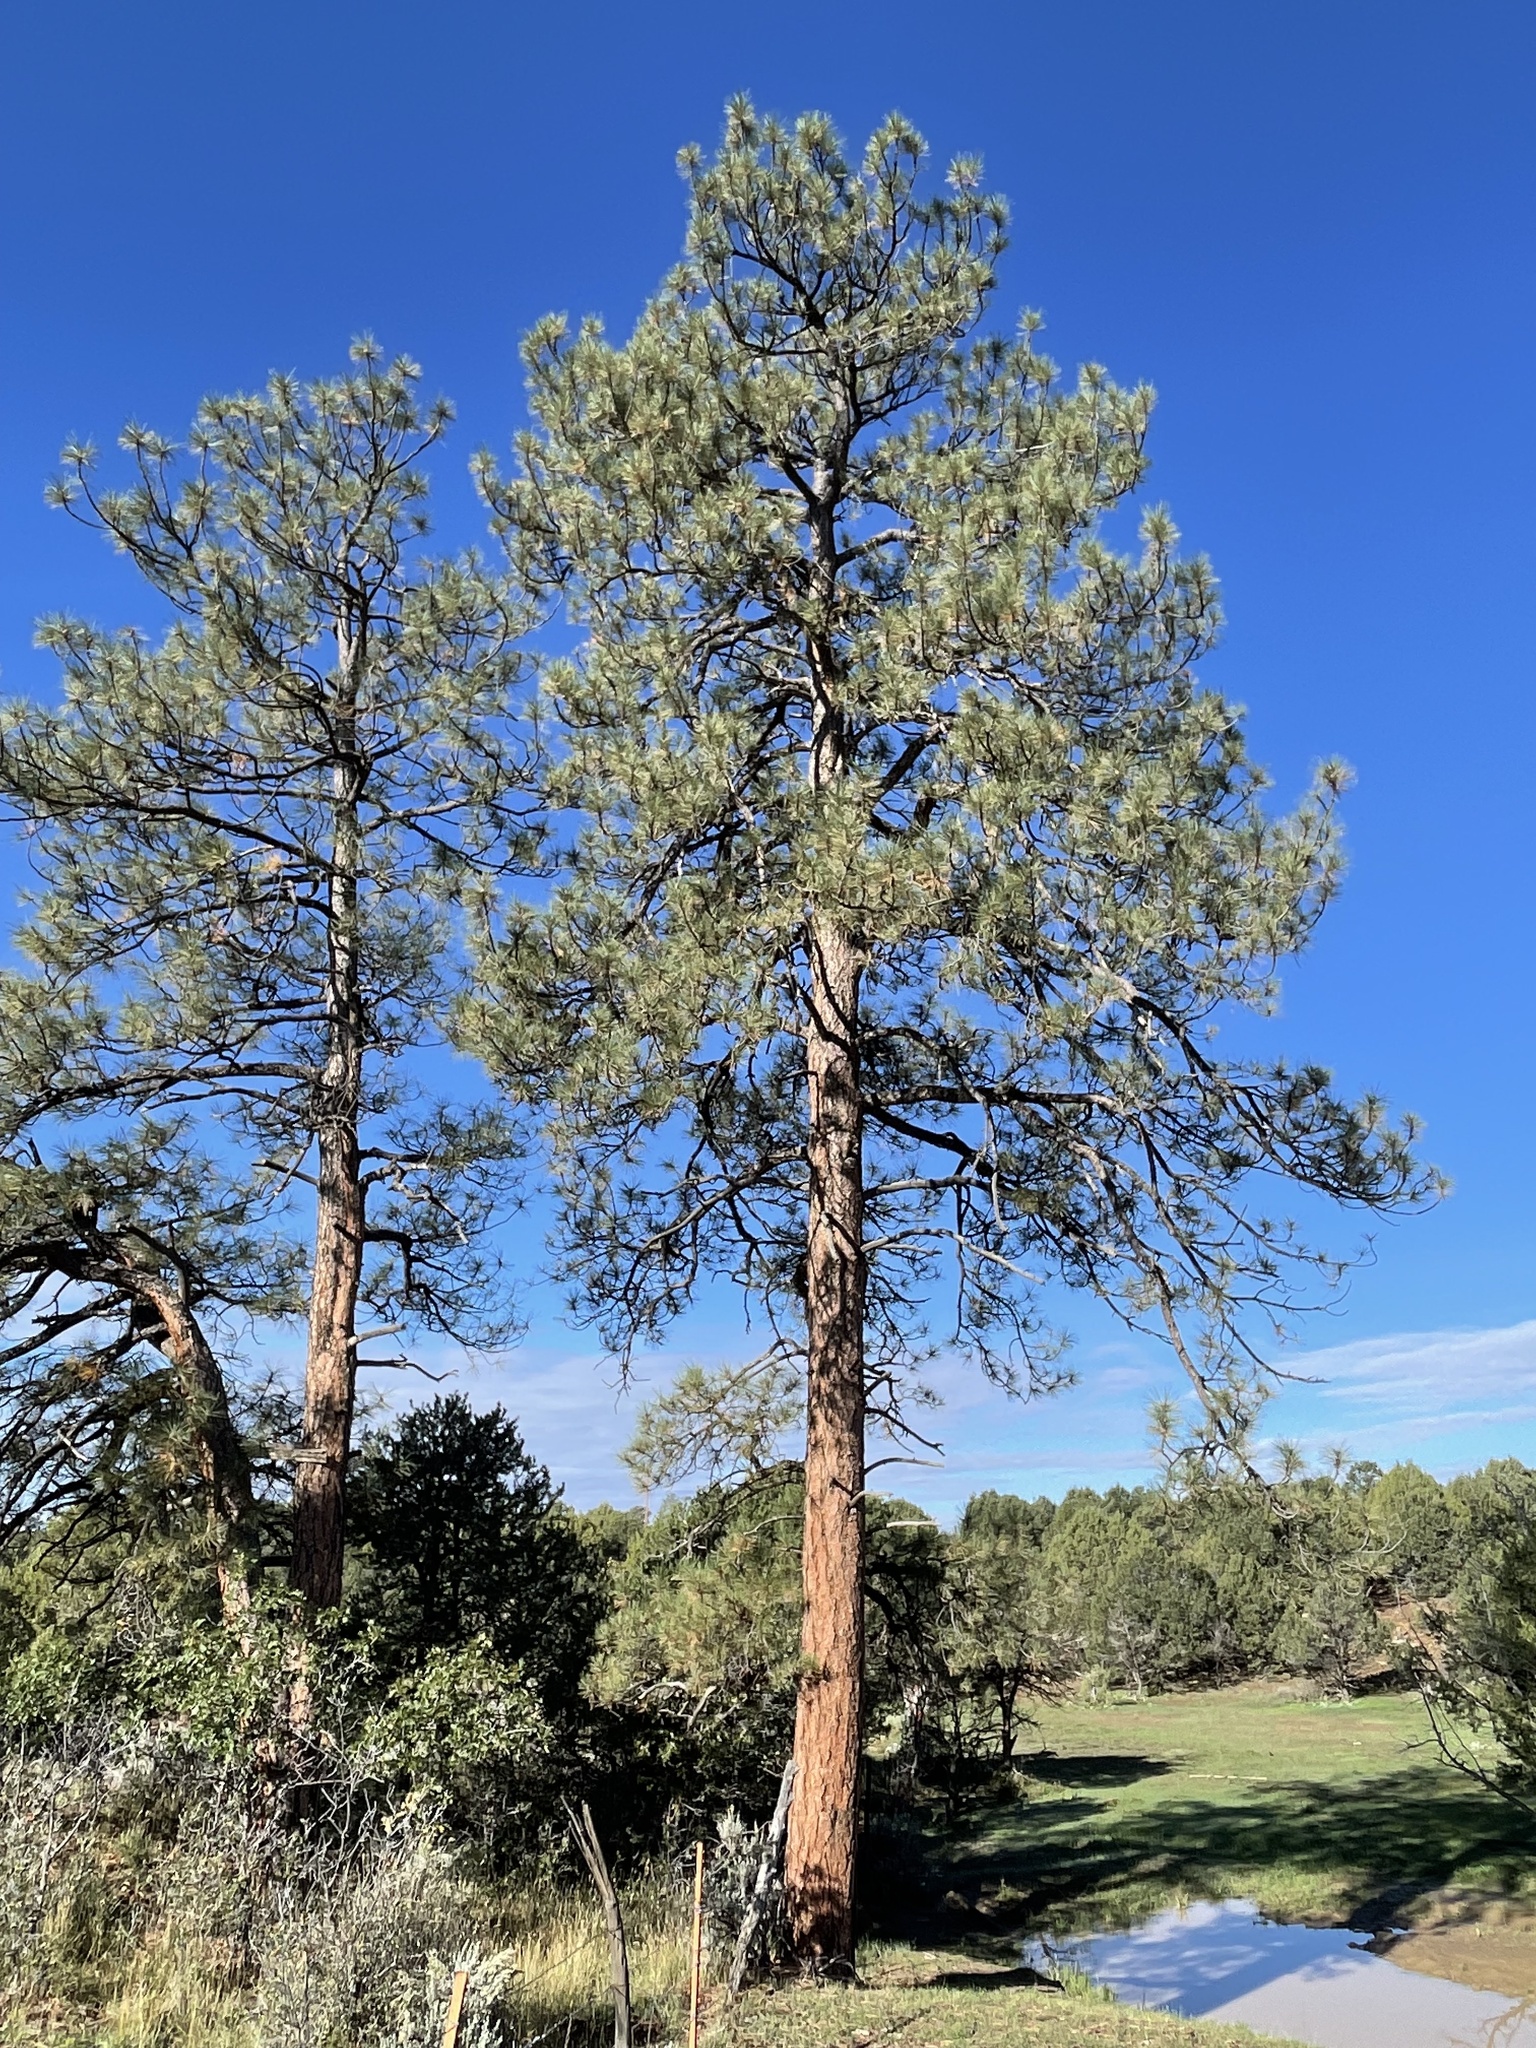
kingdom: Plantae
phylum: Tracheophyta
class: Pinopsida
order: Pinales
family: Pinaceae
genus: Pinus
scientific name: Pinus ponderosa
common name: Western yellow-pine
